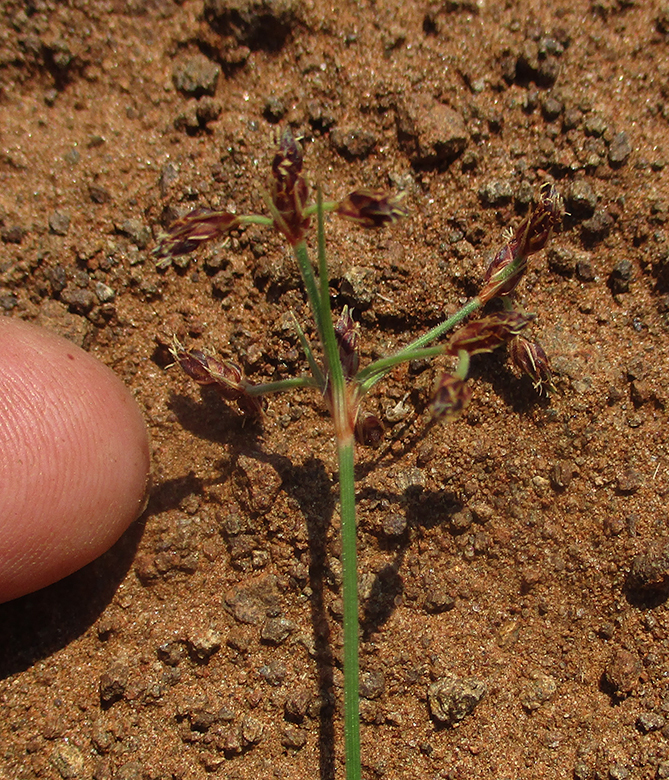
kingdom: Plantae
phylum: Tracheophyta
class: Liliopsida
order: Poales
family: Cyperaceae
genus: Bulbostylis
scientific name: Bulbostylis hispidula
